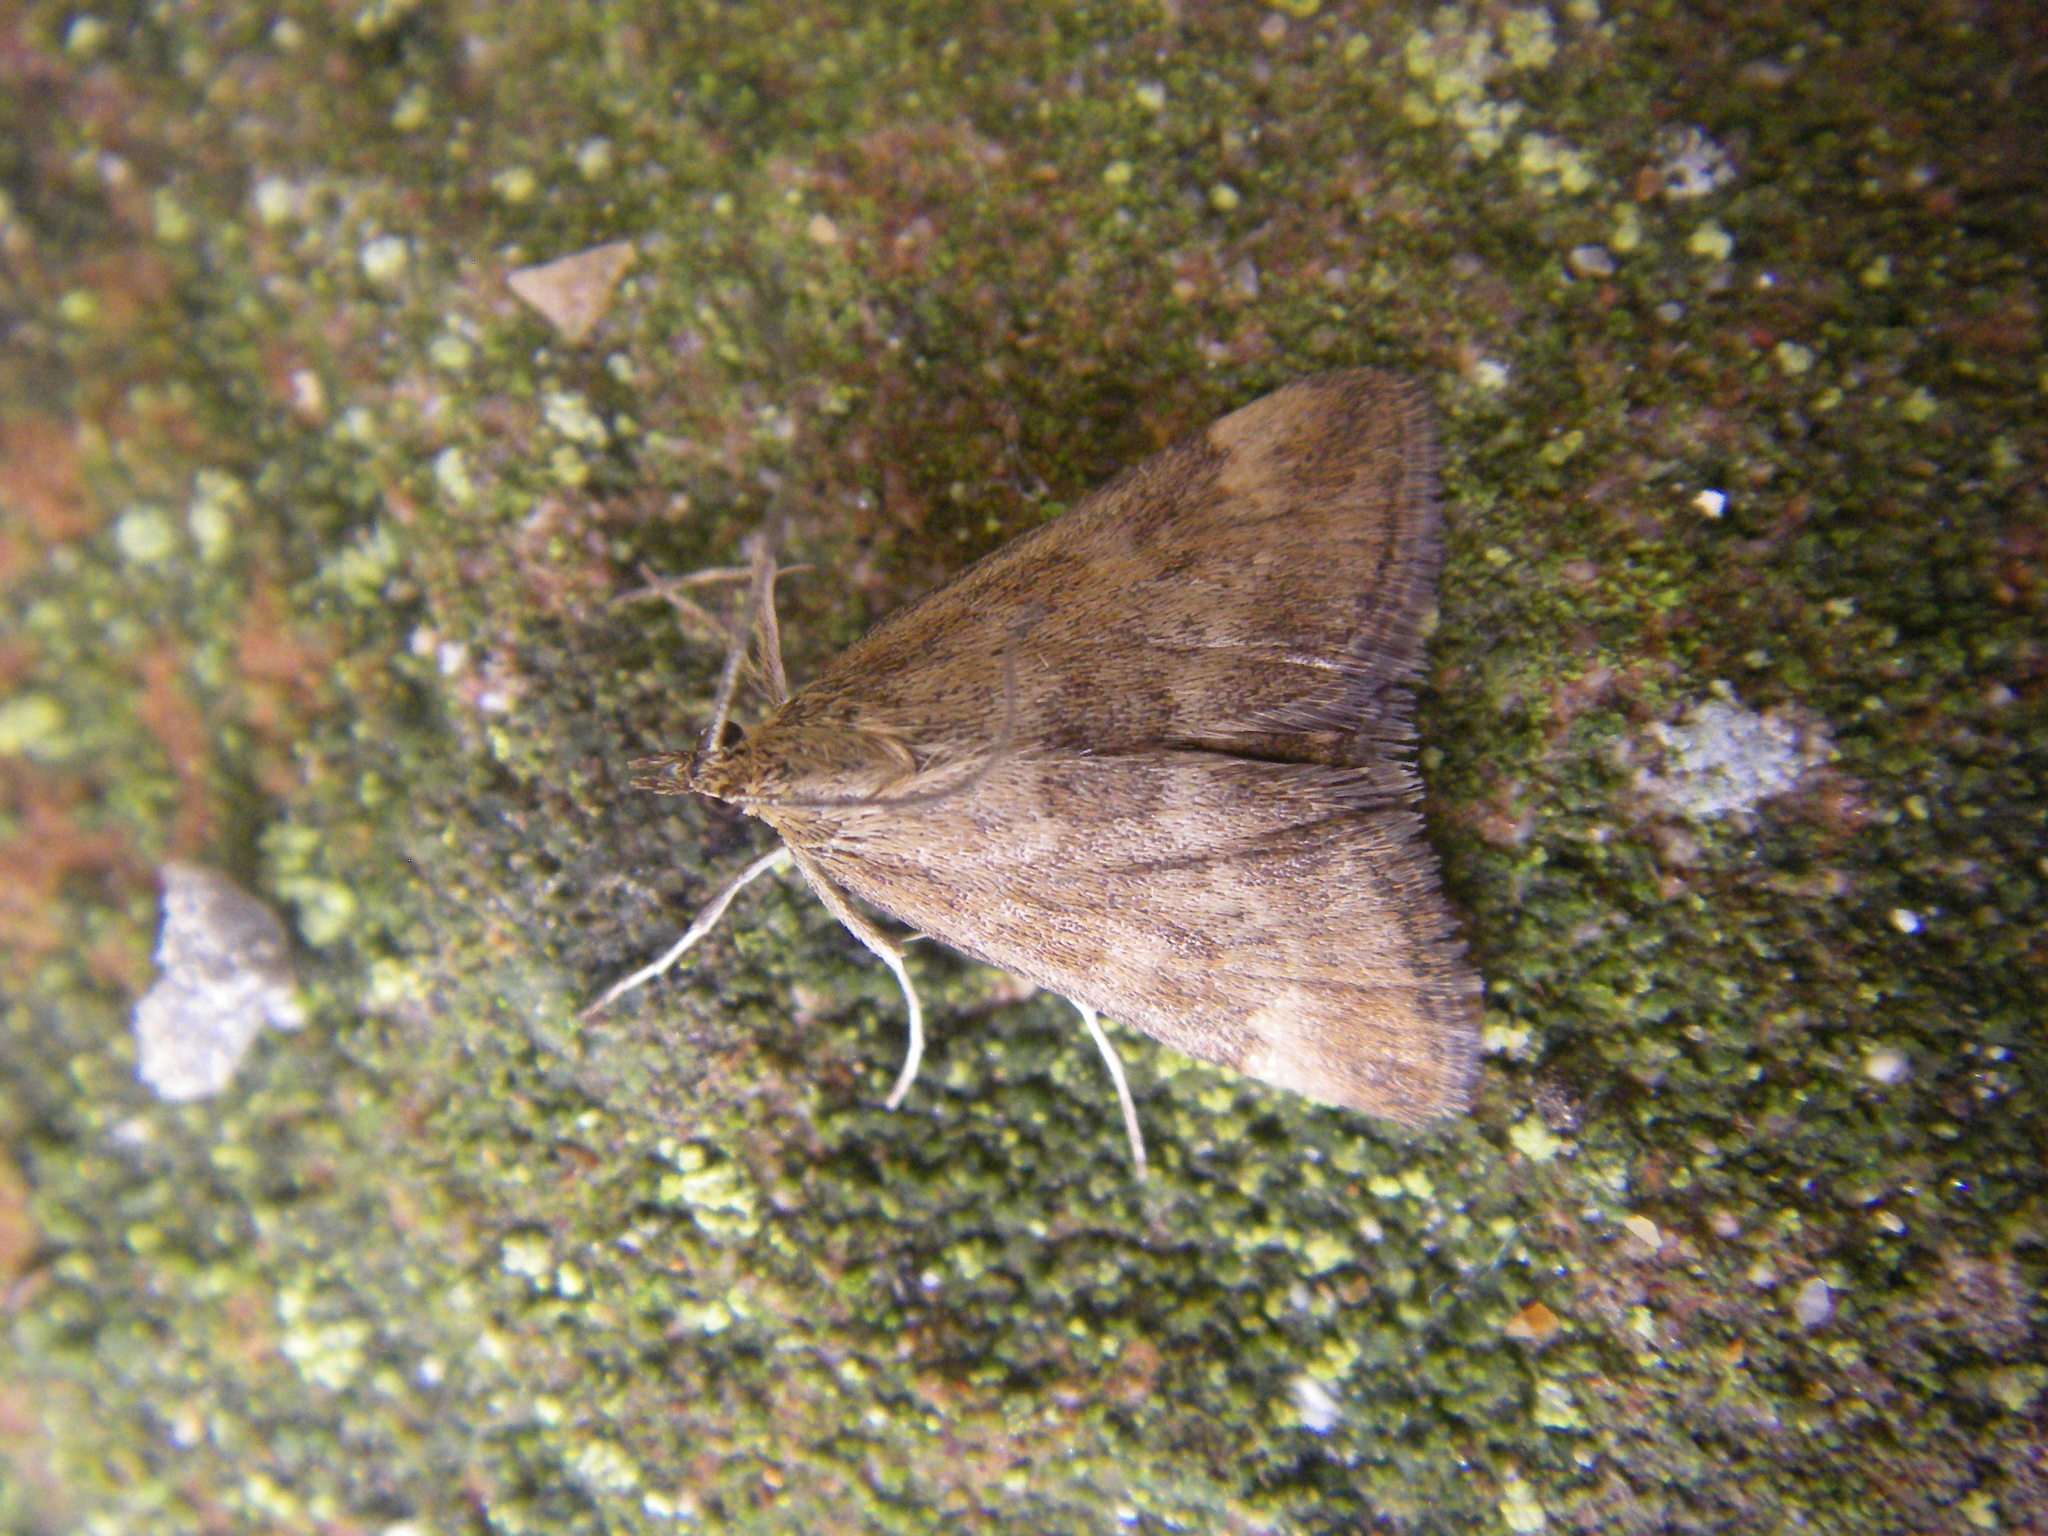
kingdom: Animalia
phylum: Arthropoda
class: Insecta
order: Lepidoptera
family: Crambidae
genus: Pyrausta
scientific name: Pyrausta despicata
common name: Straw-barred pearl
